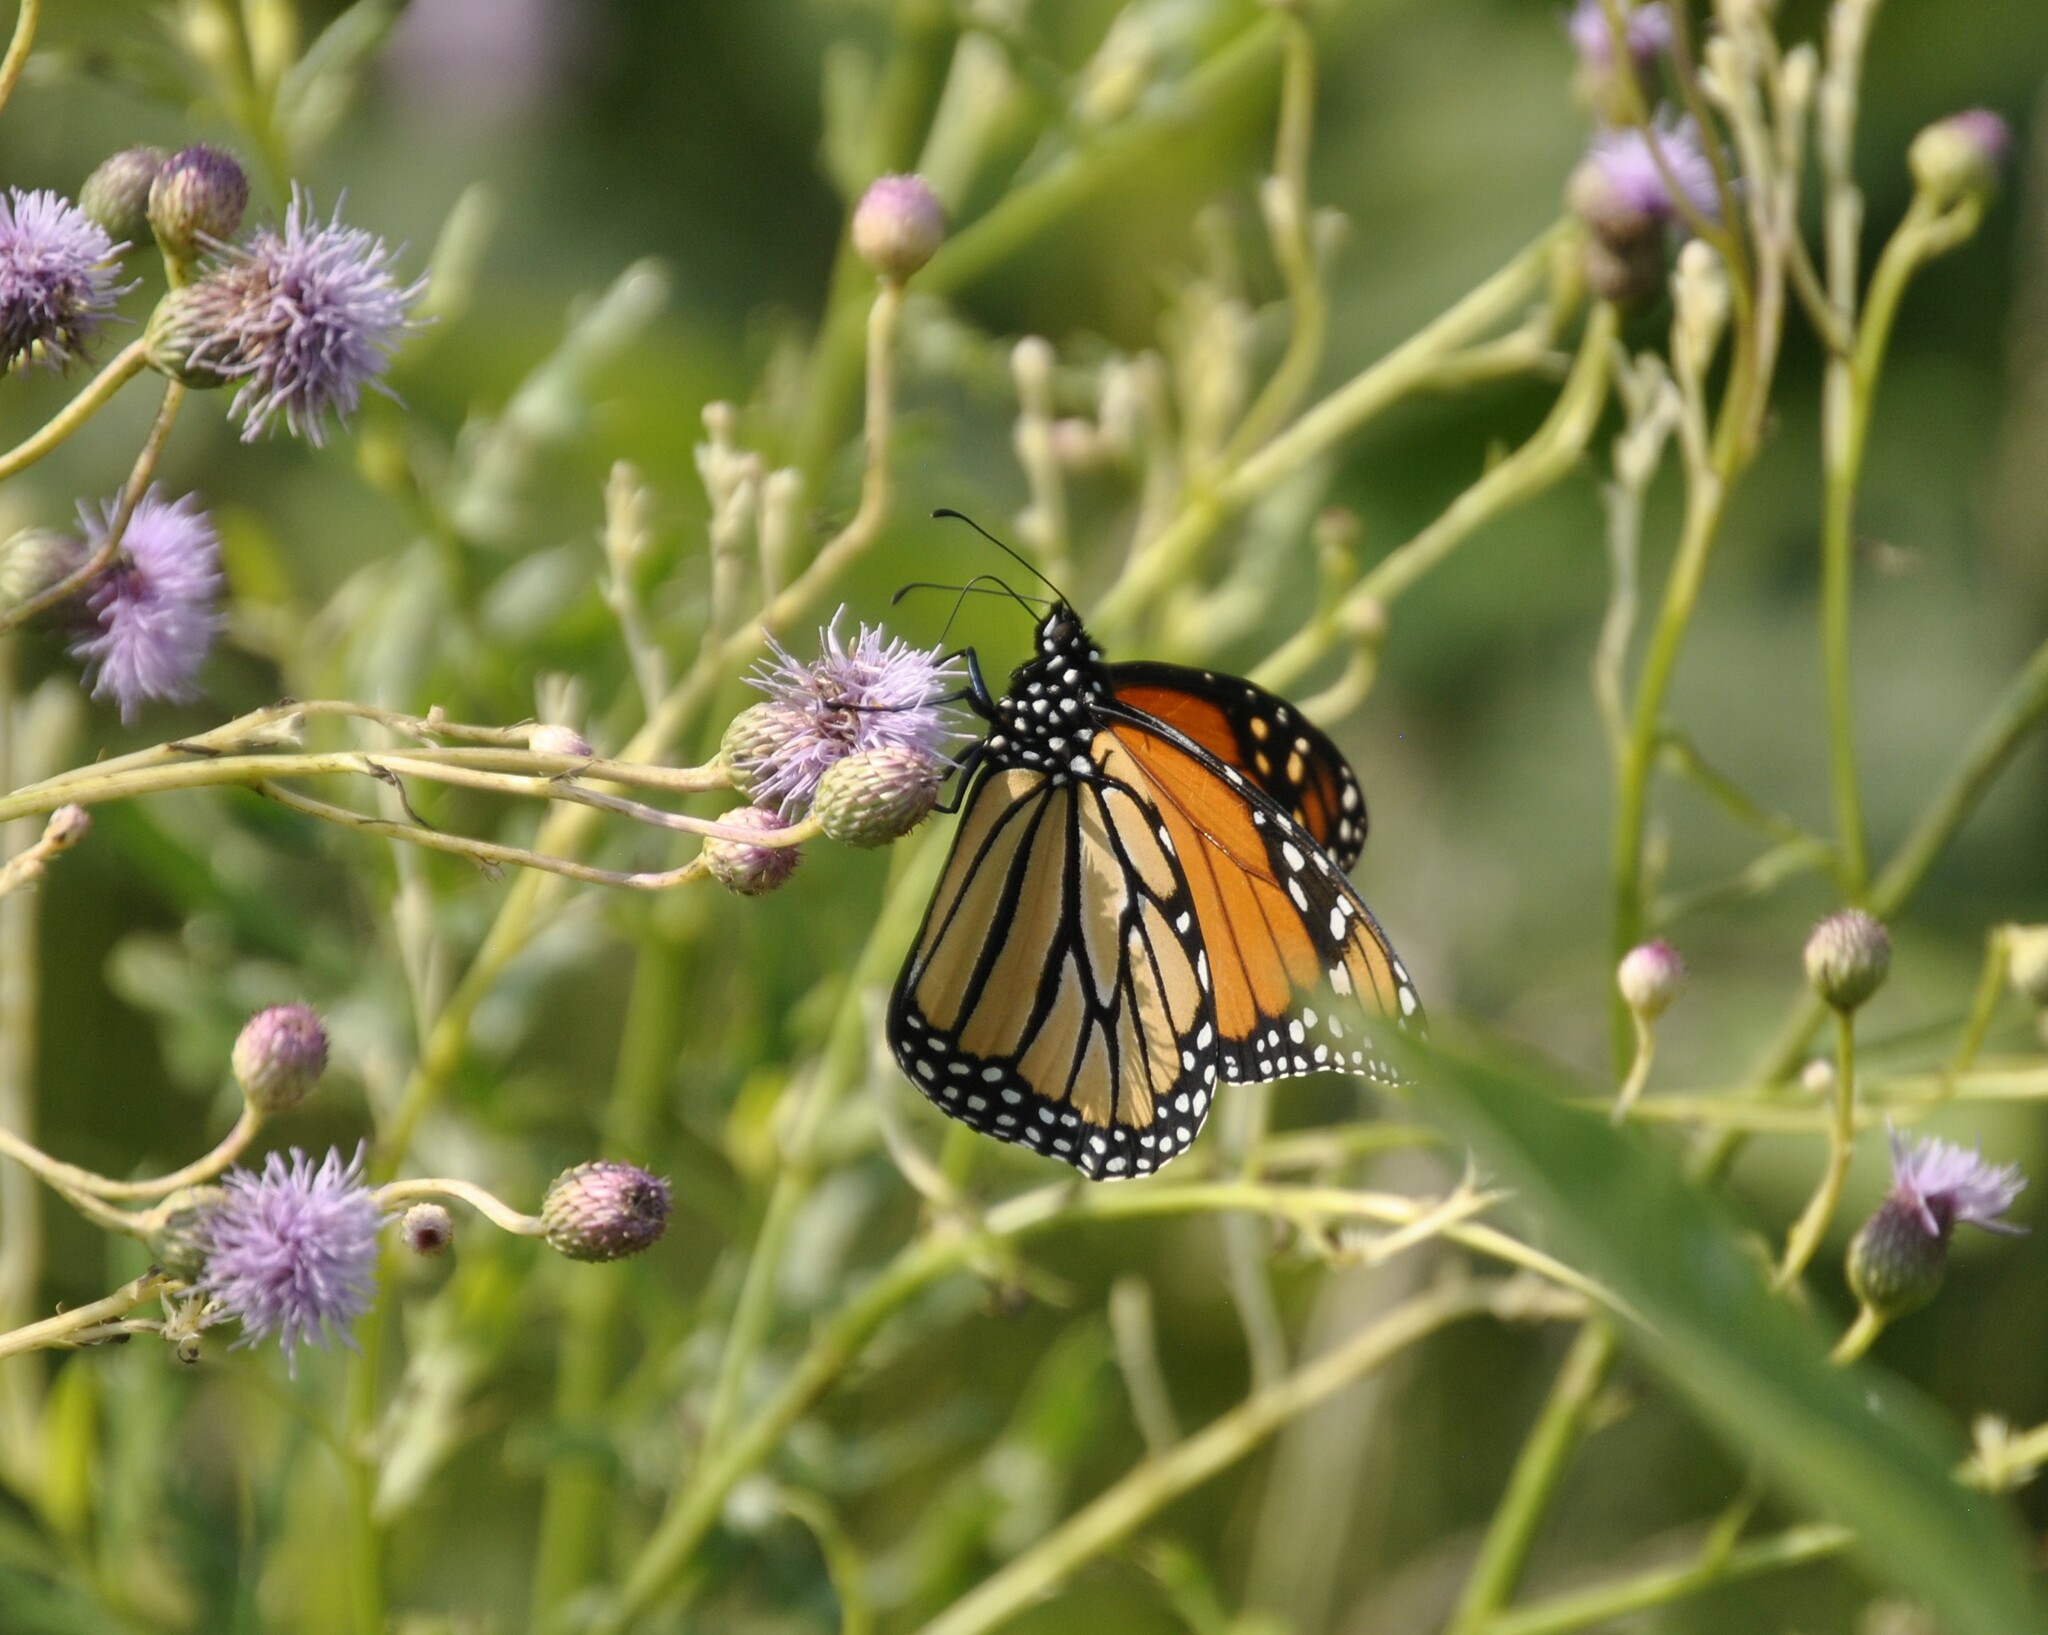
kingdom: Animalia
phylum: Arthropoda
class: Insecta
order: Lepidoptera
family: Nymphalidae
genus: Danaus
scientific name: Danaus plexippus
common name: Monarch
